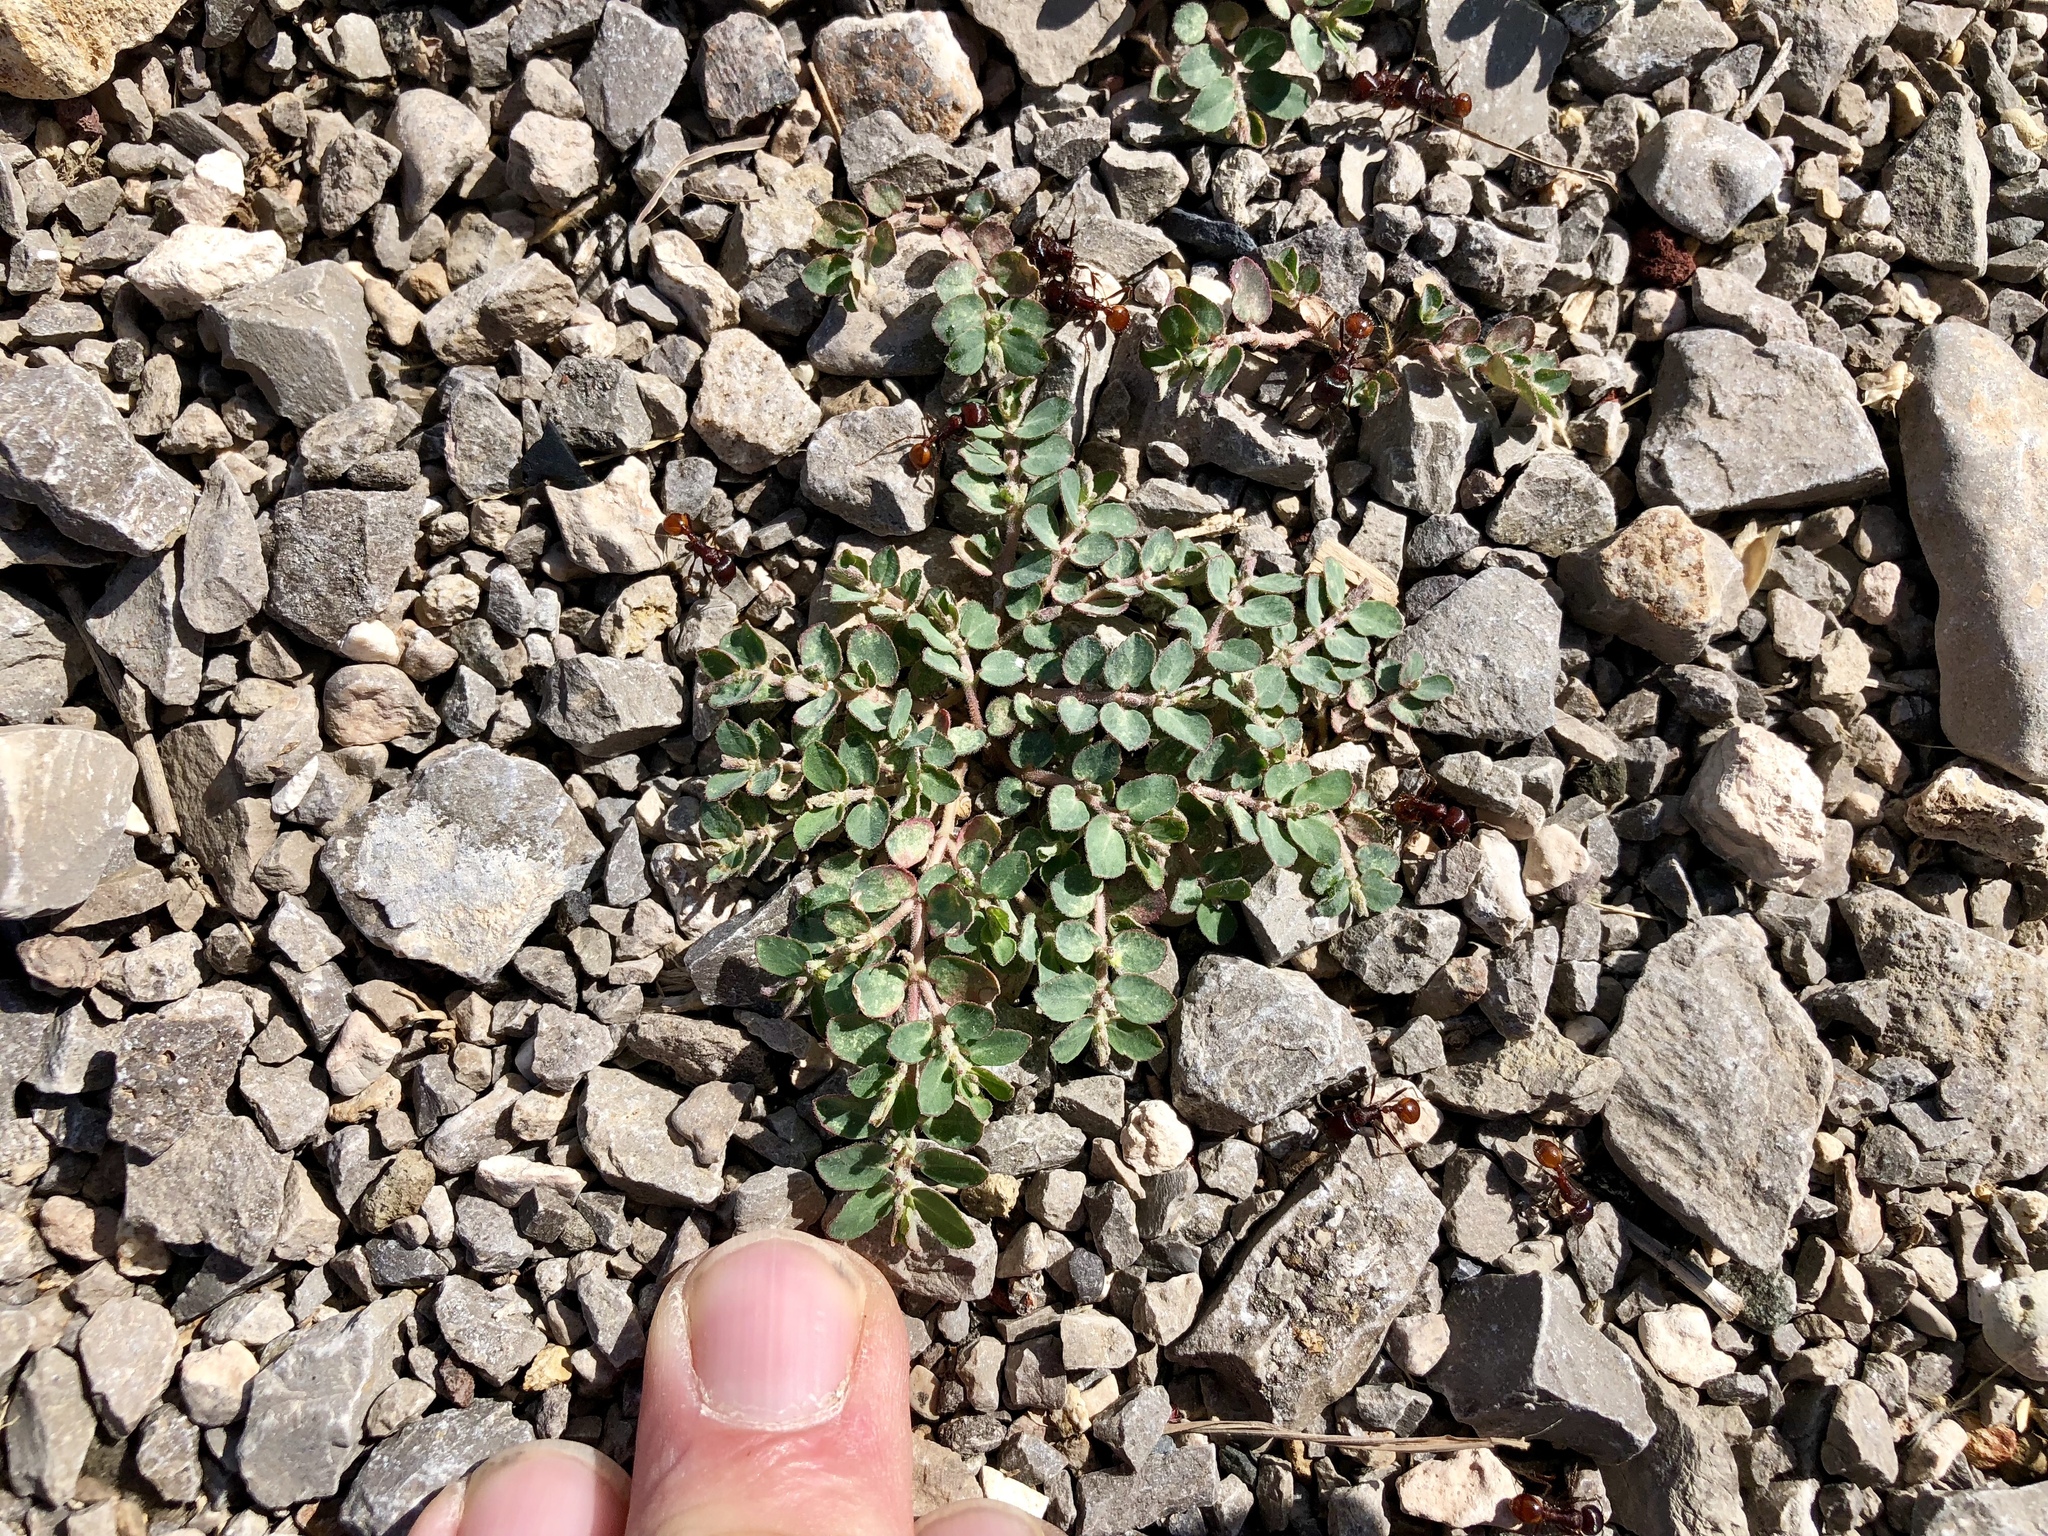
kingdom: Plantae
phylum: Tracheophyta
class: Magnoliopsida
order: Malpighiales
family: Euphorbiaceae
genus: Euphorbia
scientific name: Euphorbia prostrata
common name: Prostrate sandmat
